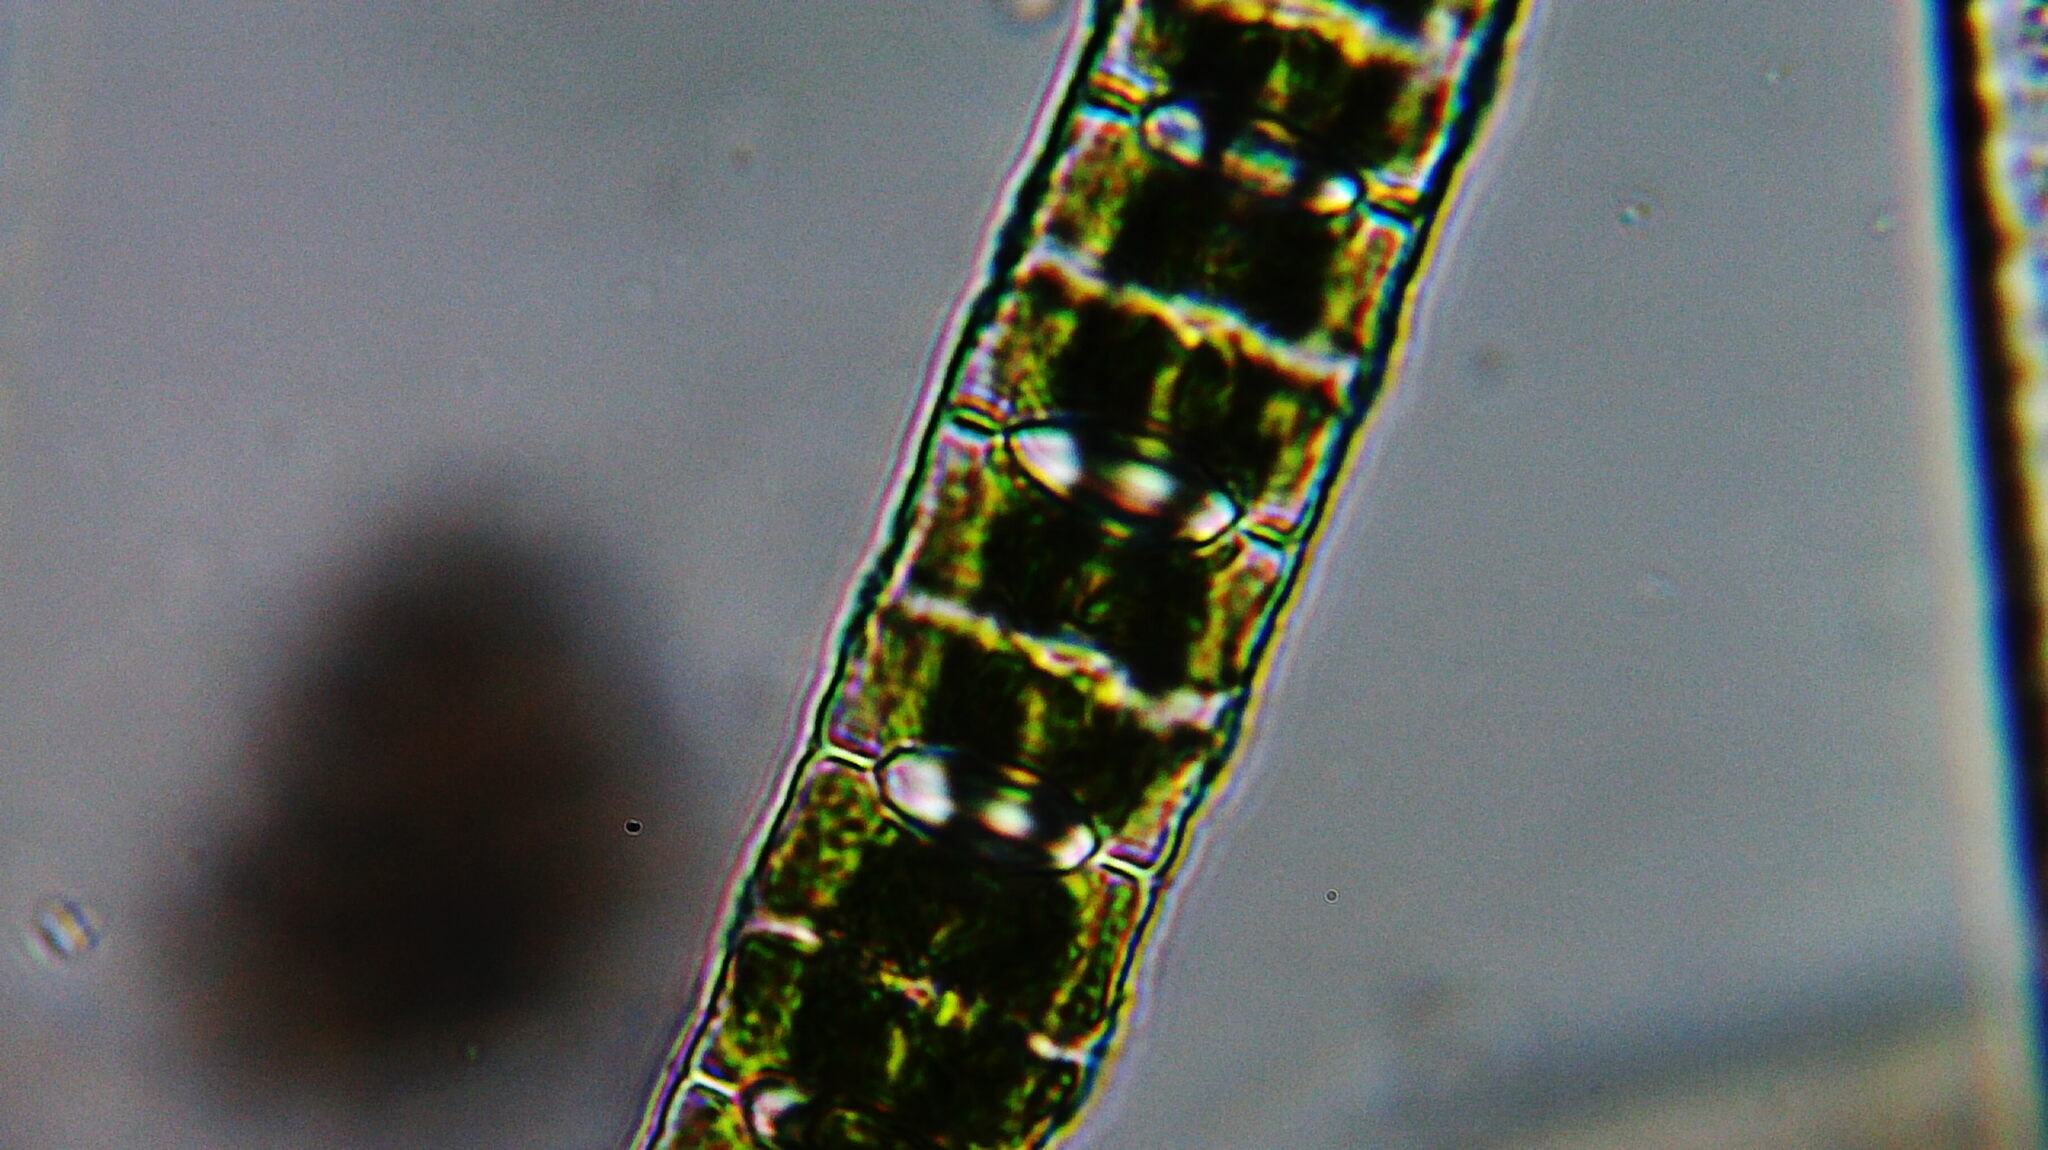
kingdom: Plantae
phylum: Charophyta
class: Conjugatophyceae
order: Desmidiales
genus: Desmidium
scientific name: Desmidium baileyi
